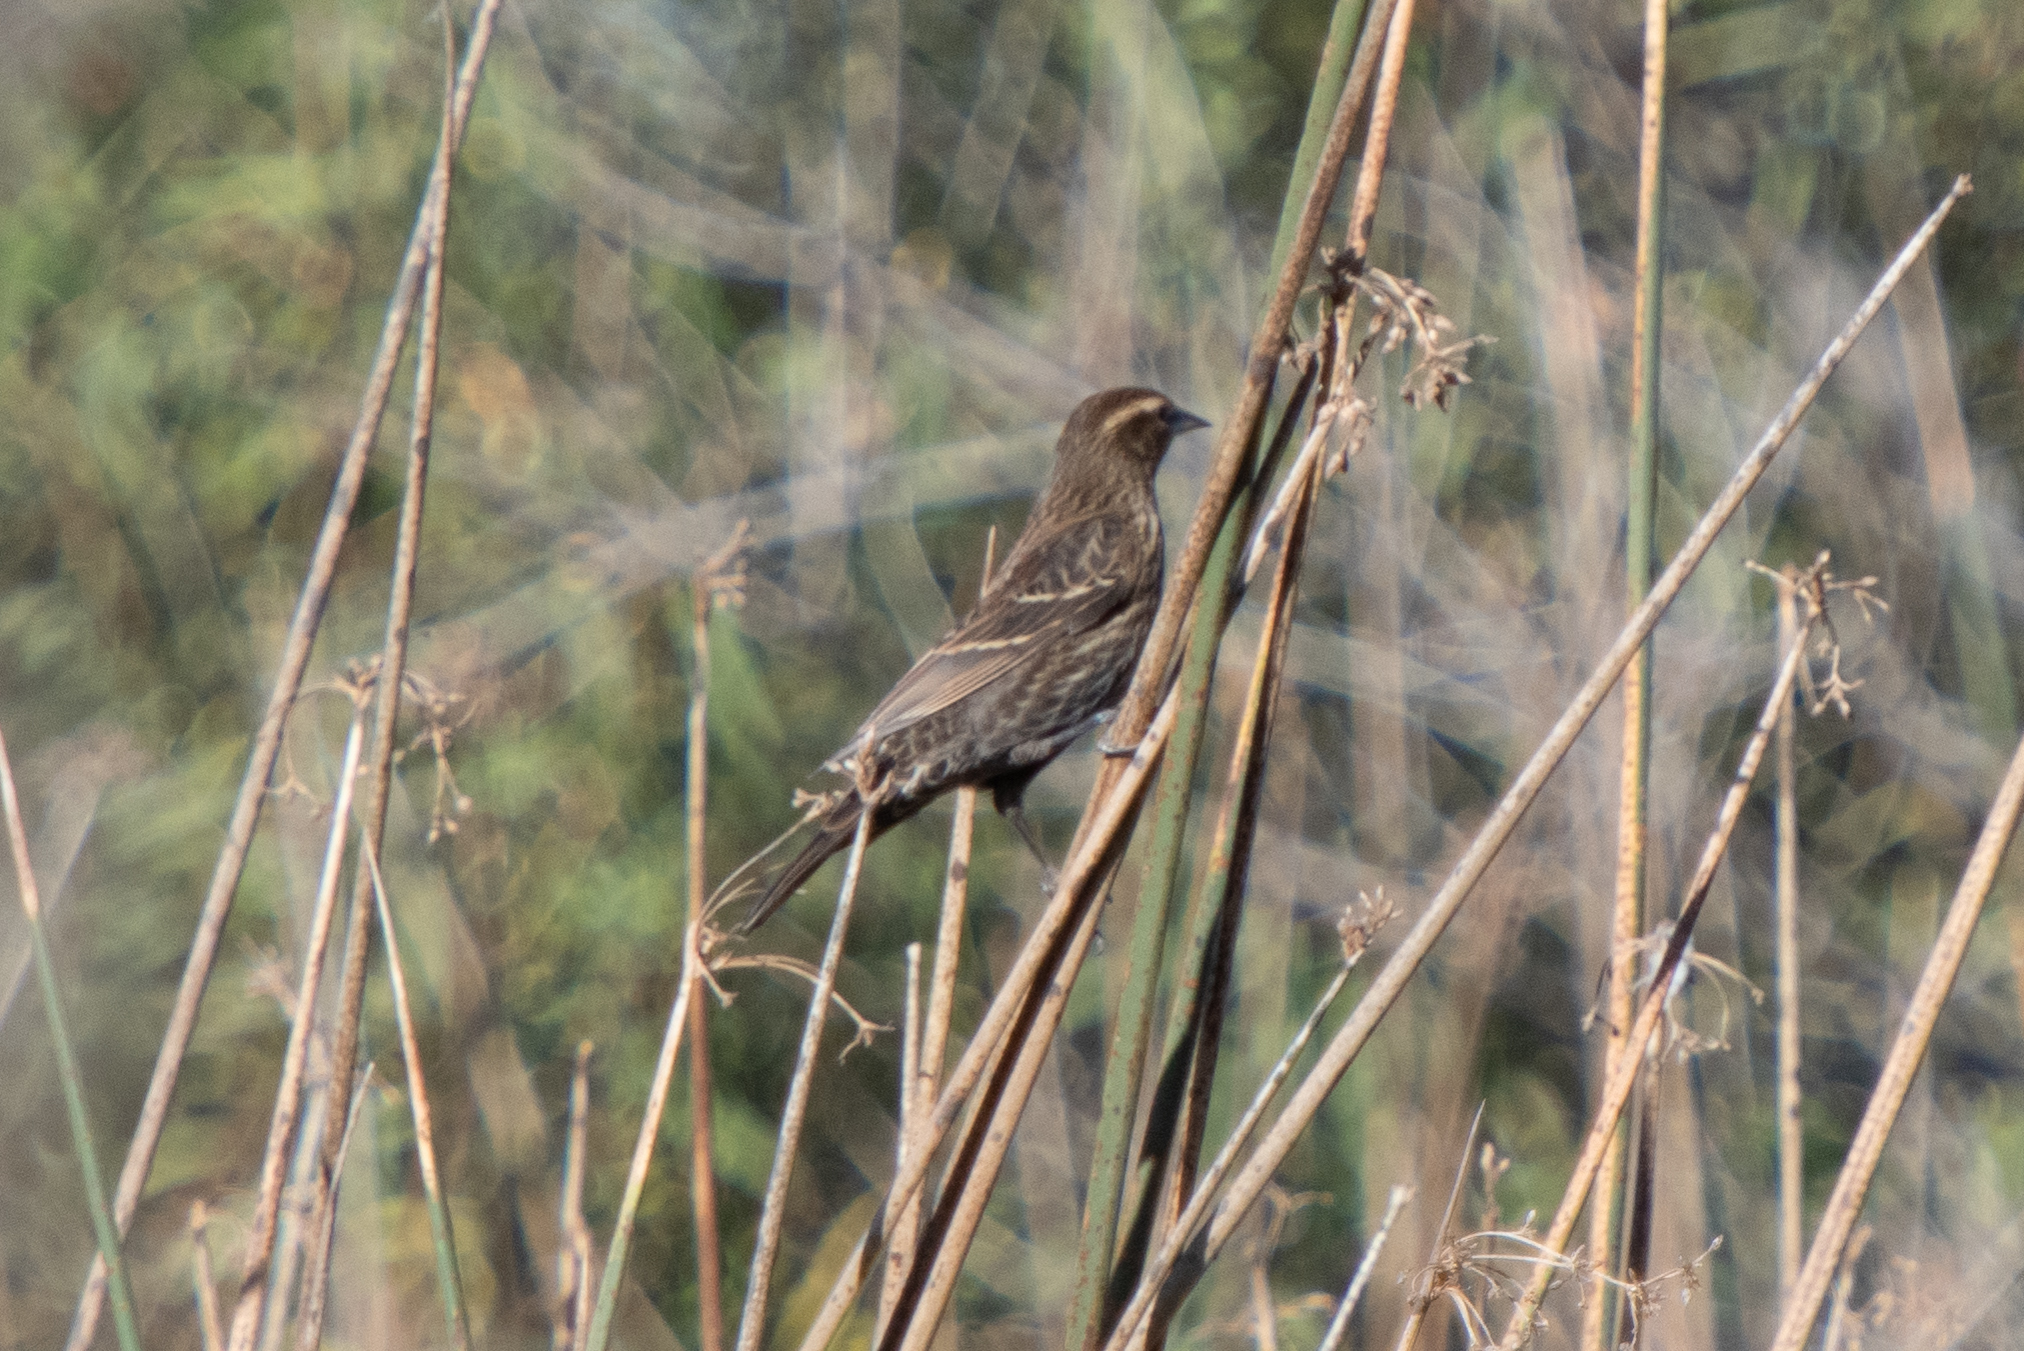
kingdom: Animalia
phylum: Chordata
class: Aves
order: Passeriformes
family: Icteridae
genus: Agelaius
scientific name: Agelaius phoeniceus
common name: Red-winged blackbird
